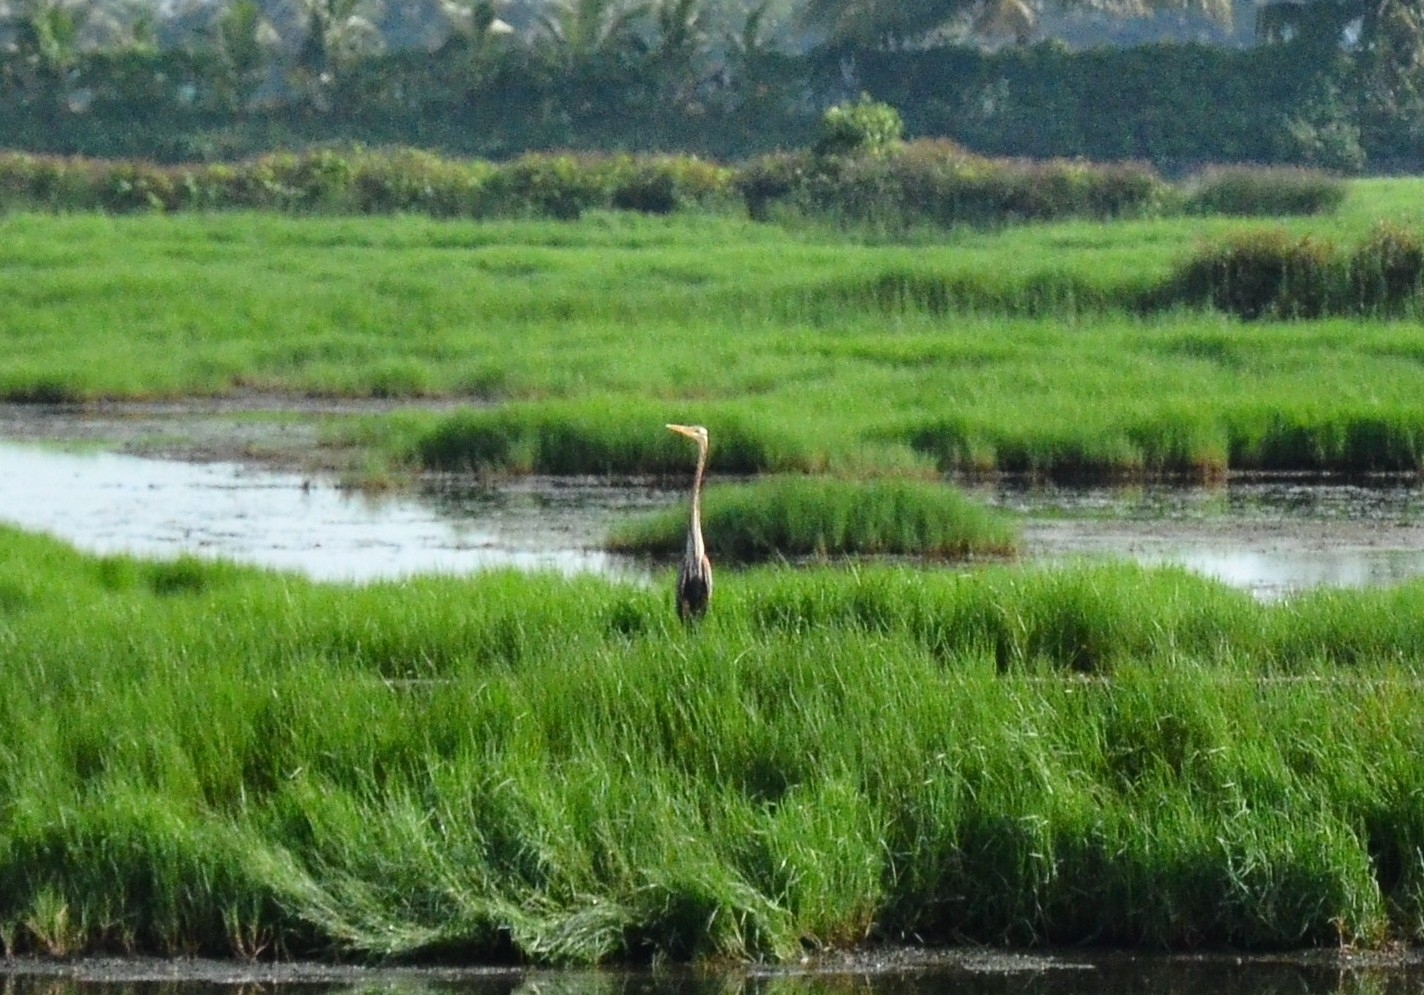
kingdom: Animalia
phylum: Chordata
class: Aves
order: Pelecaniformes
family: Ardeidae
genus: Ardea
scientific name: Ardea purpurea
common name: Purple heron
